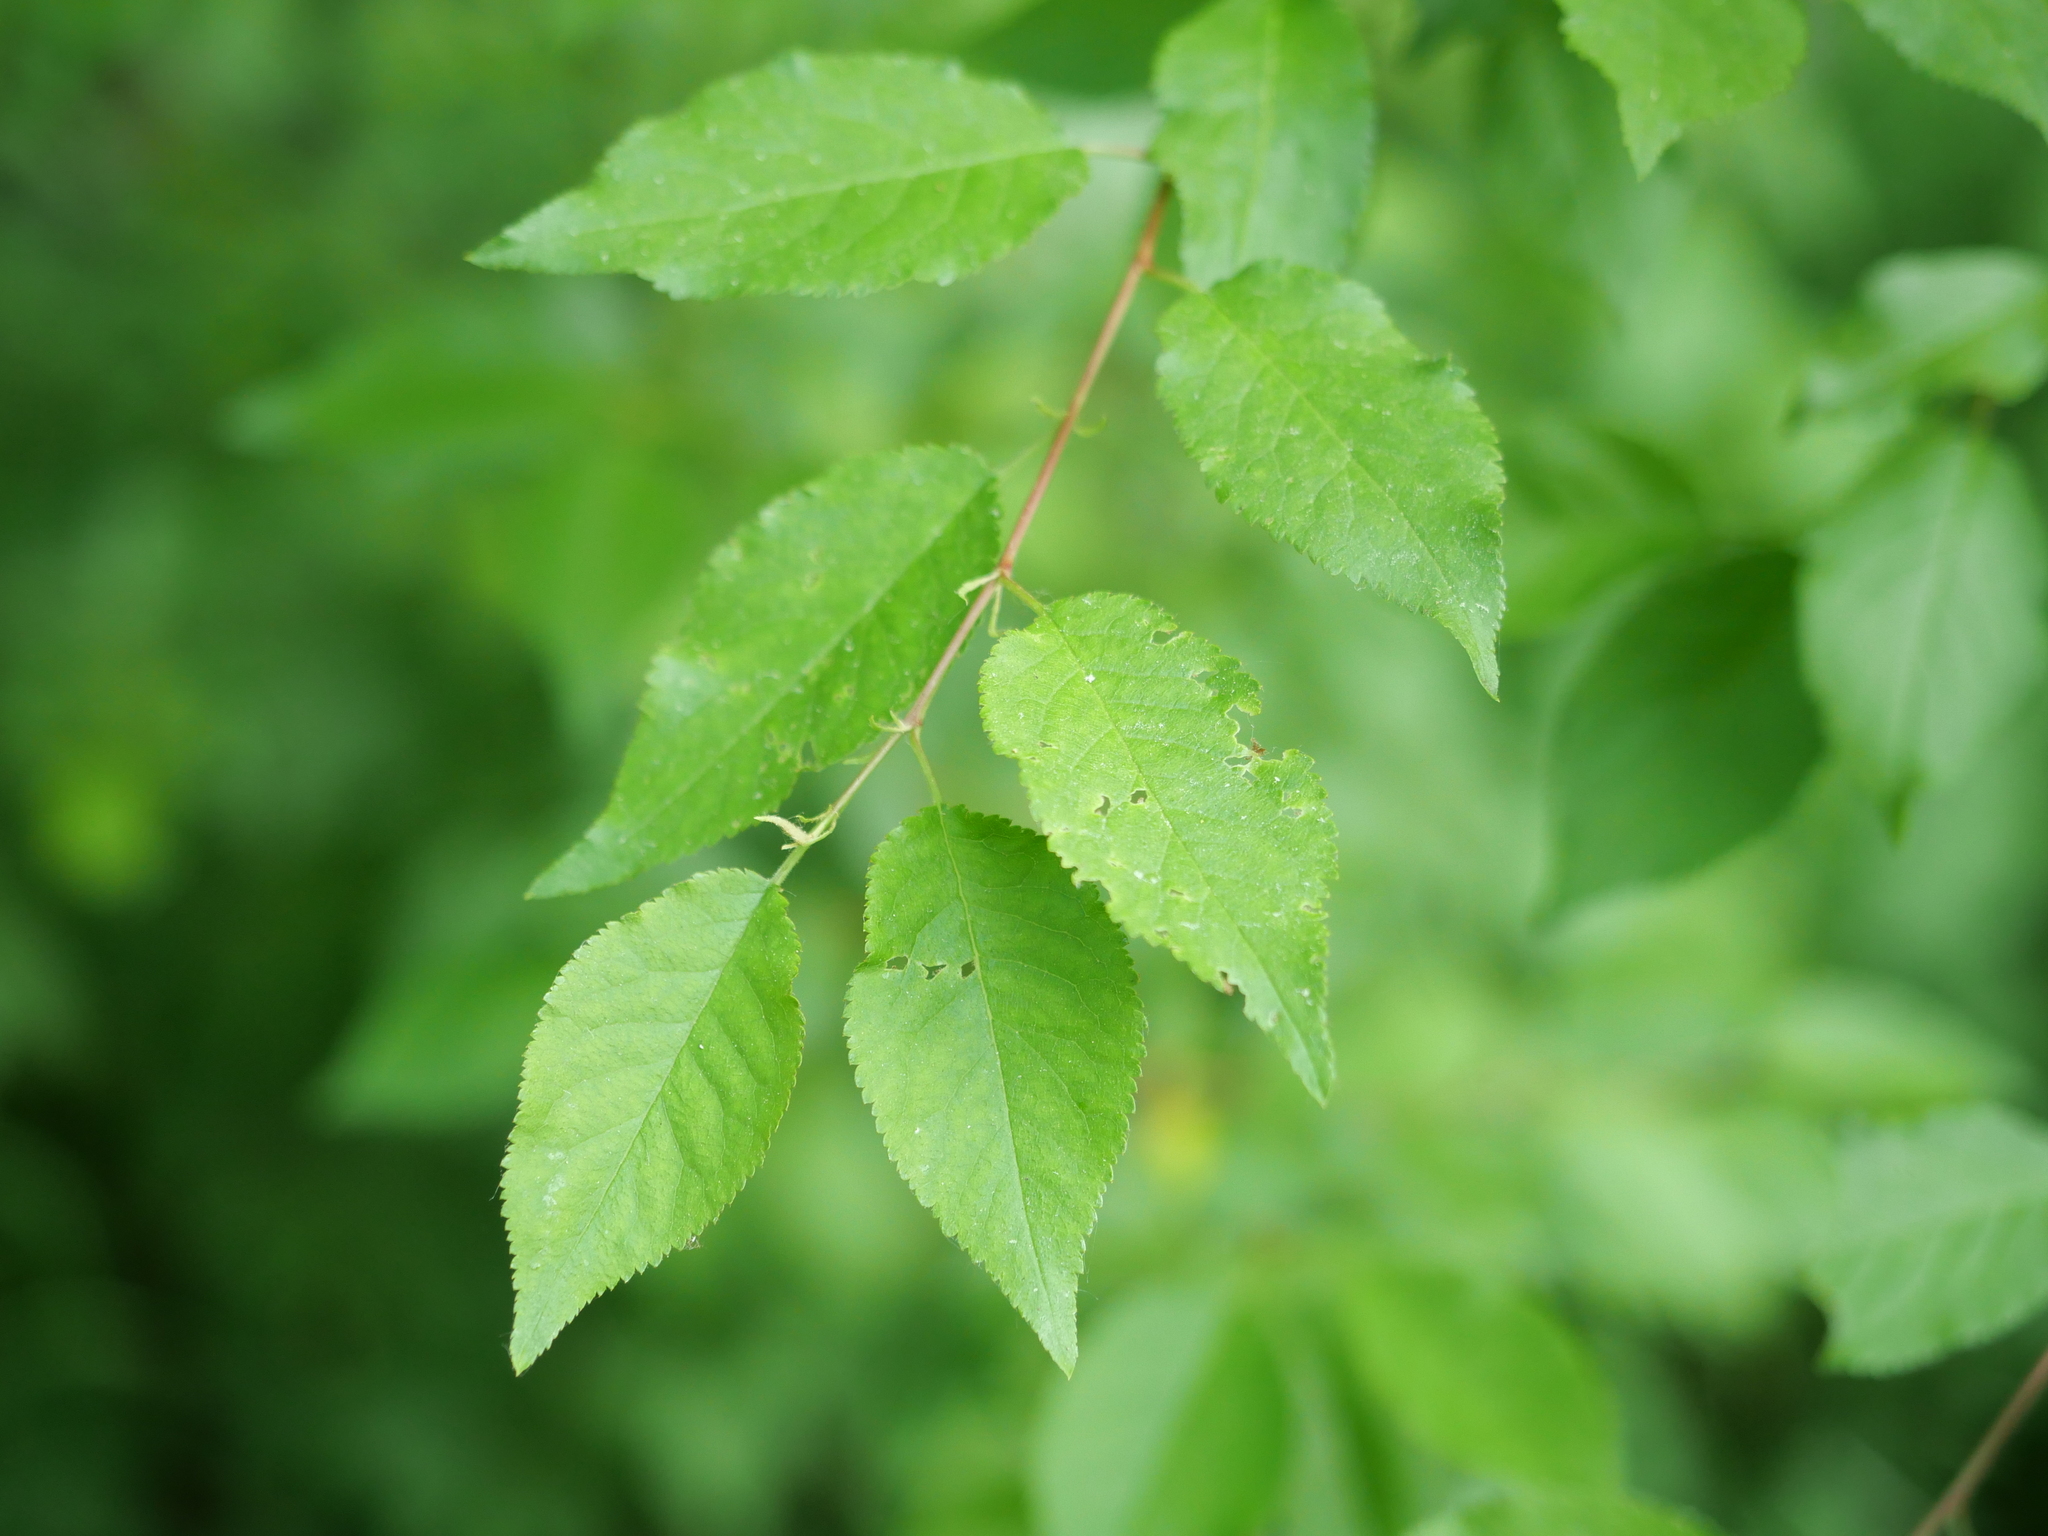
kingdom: Plantae
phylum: Tracheophyta
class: Magnoliopsida
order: Rosales
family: Rosaceae
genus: Prunus
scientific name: Prunus cerasifera
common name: Cherry plum
